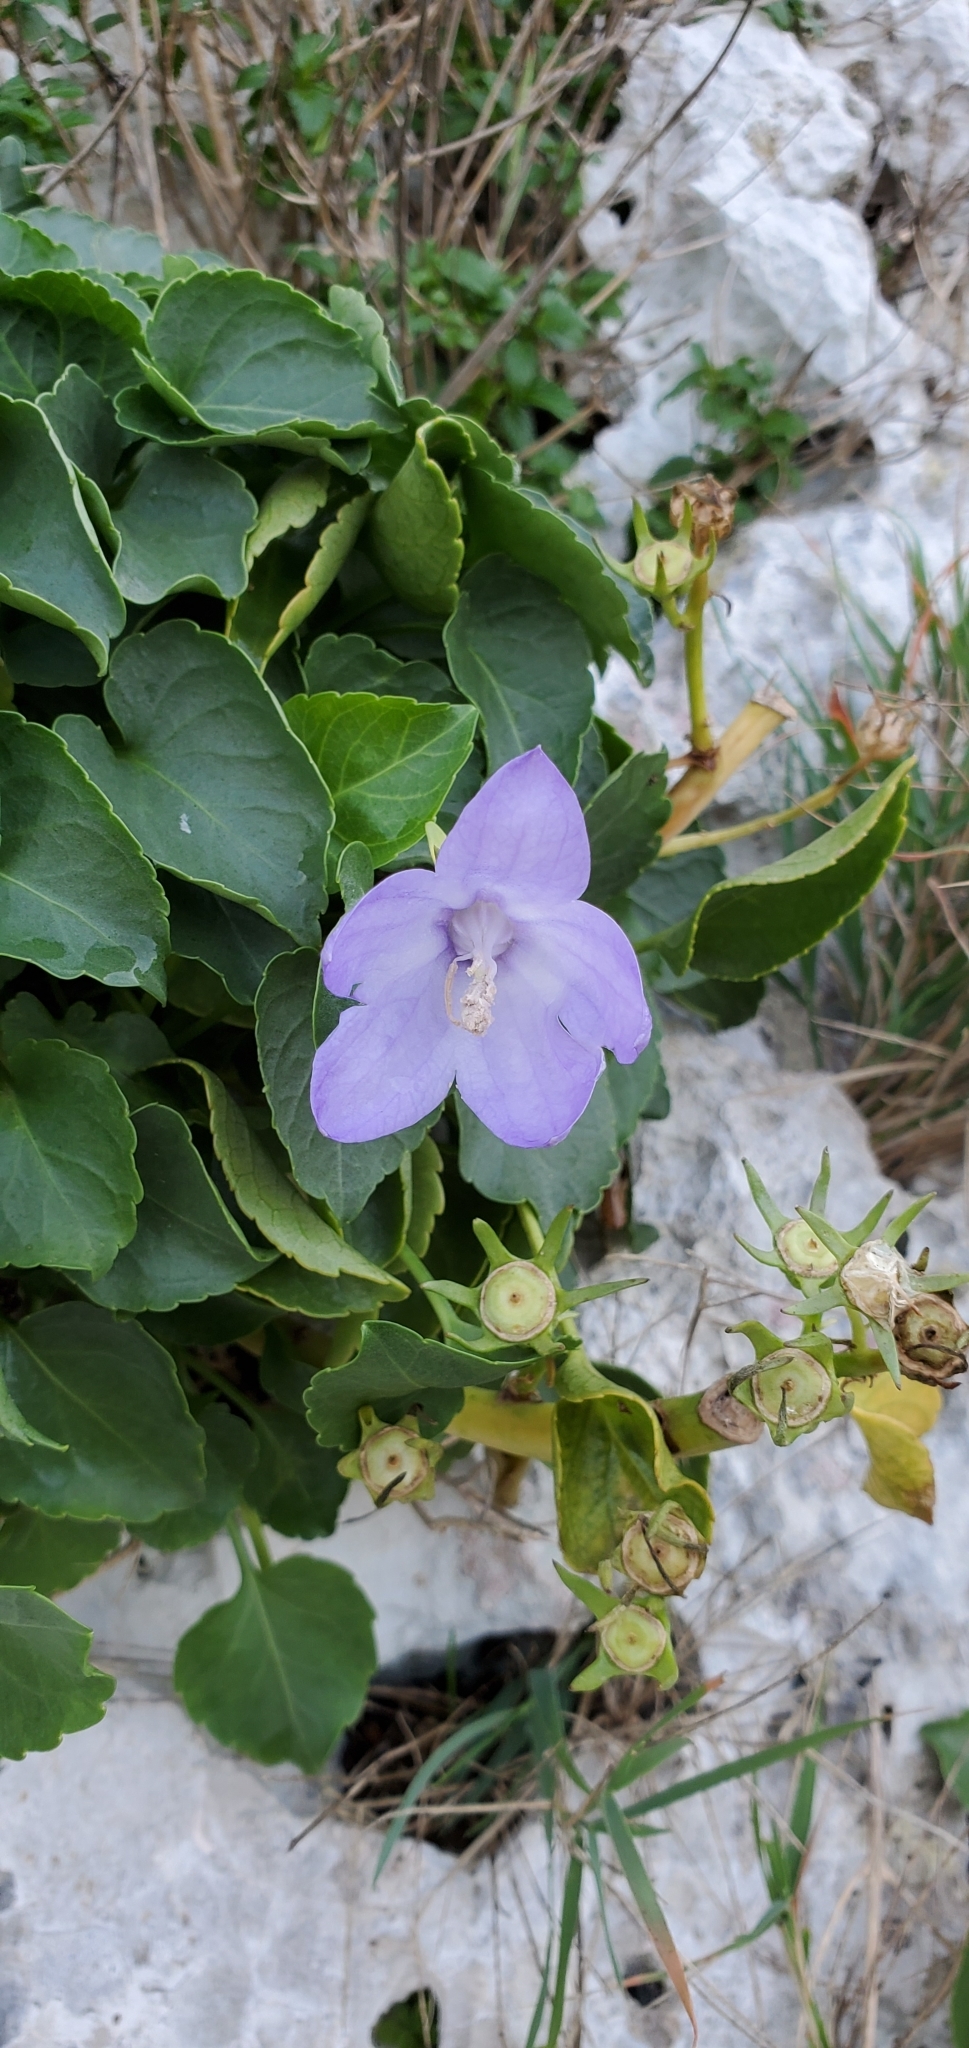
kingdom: Plantae
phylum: Tracheophyta
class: Magnoliopsida
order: Asterales
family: Campanulaceae
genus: Campanula
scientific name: Campanula versicolor
